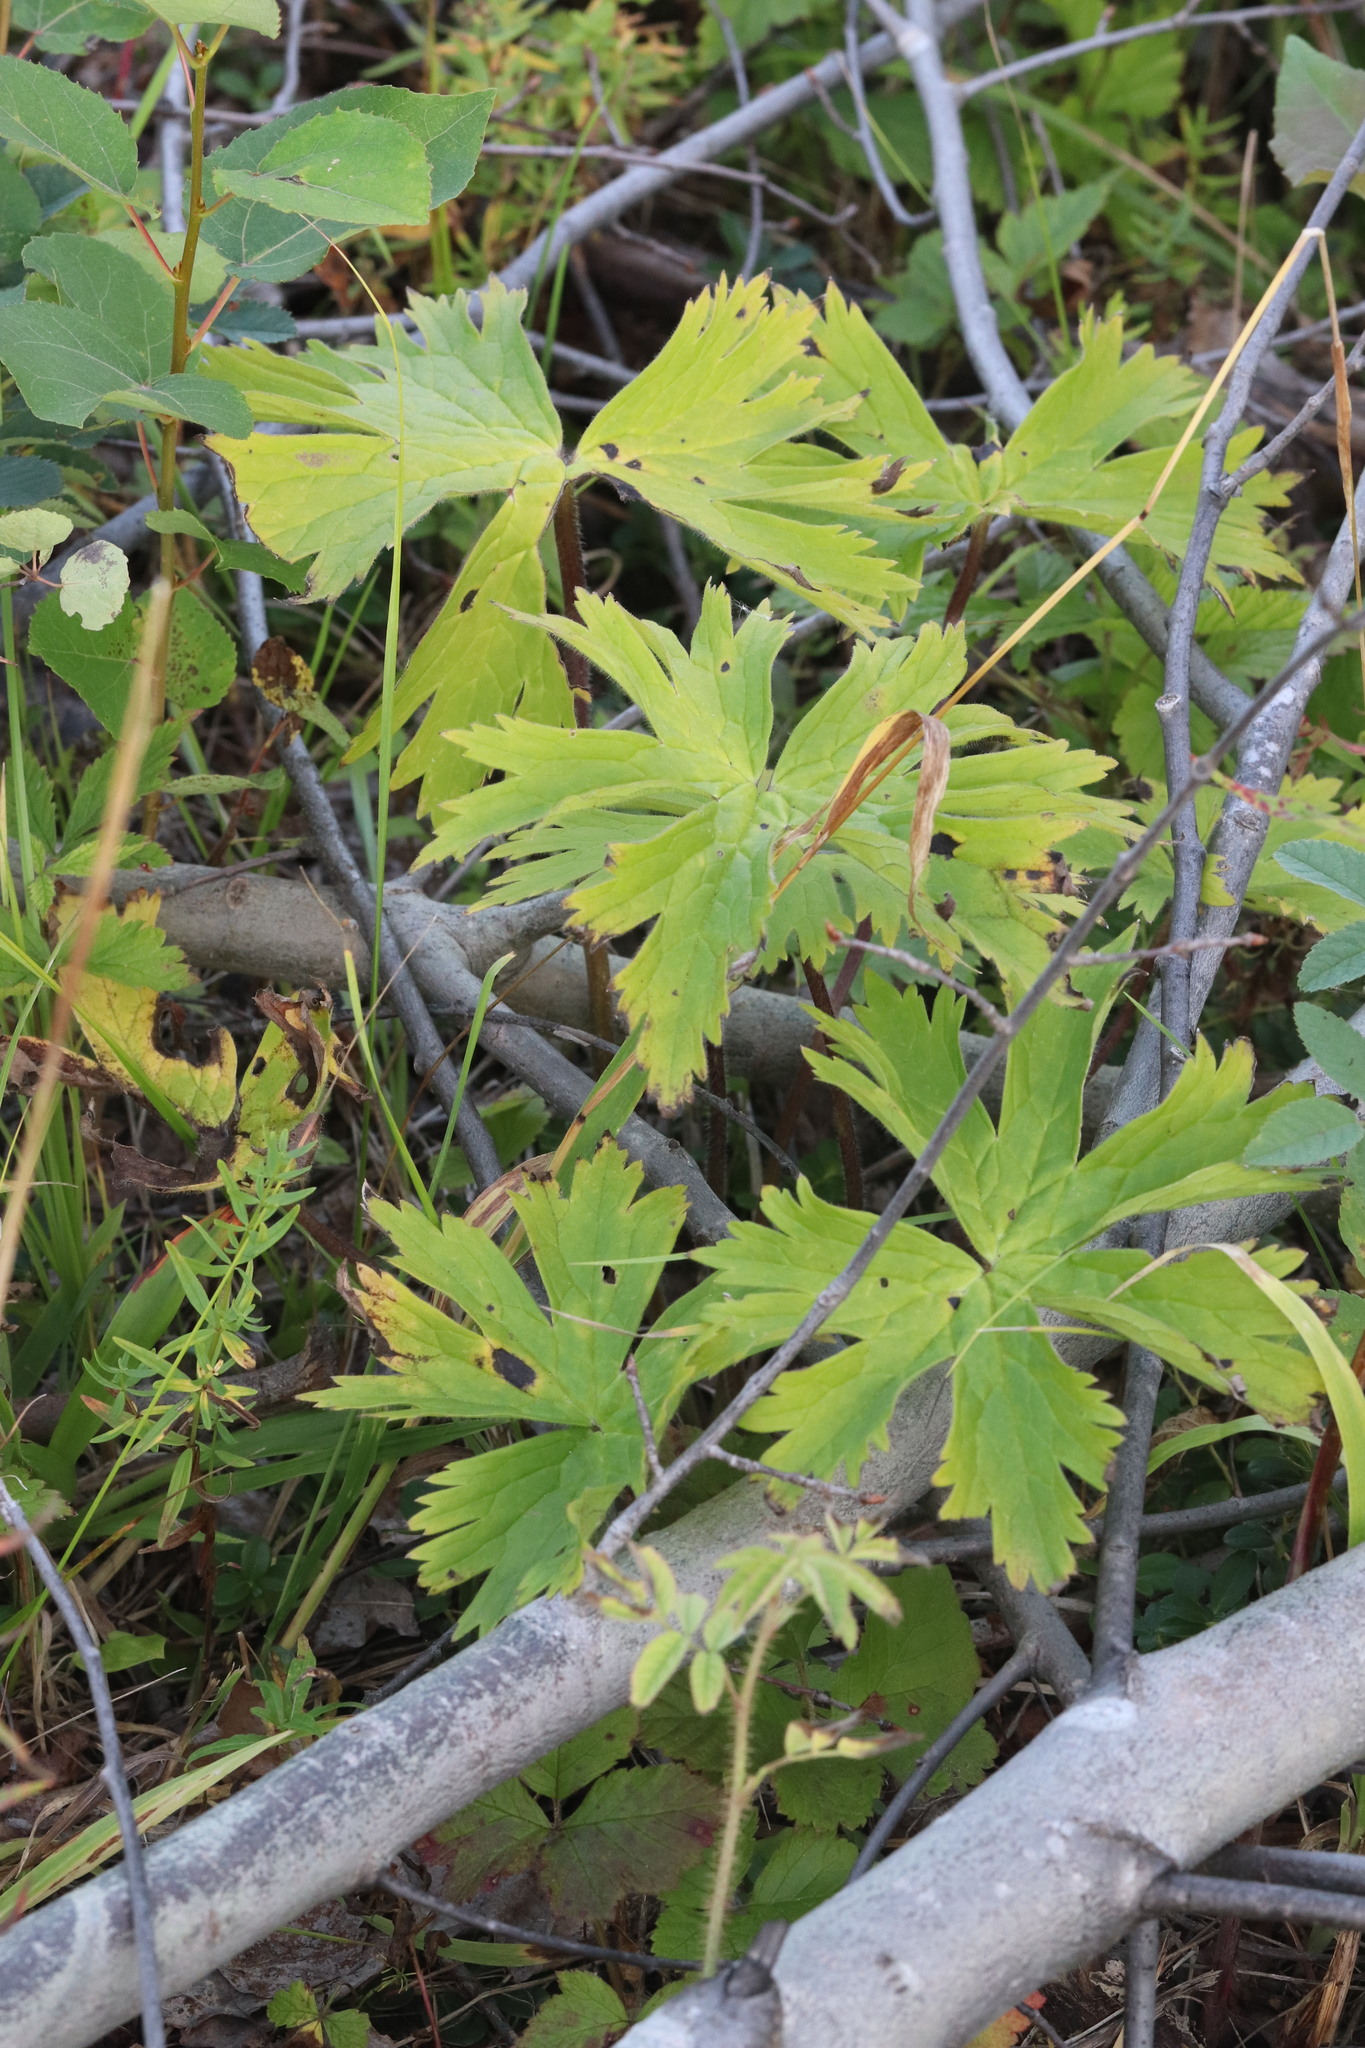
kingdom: Plantae
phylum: Tracheophyta
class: Magnoliopsida
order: Ranunculales
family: Ranunculaceae
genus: Aconitum
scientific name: Aconitum septentrionale
